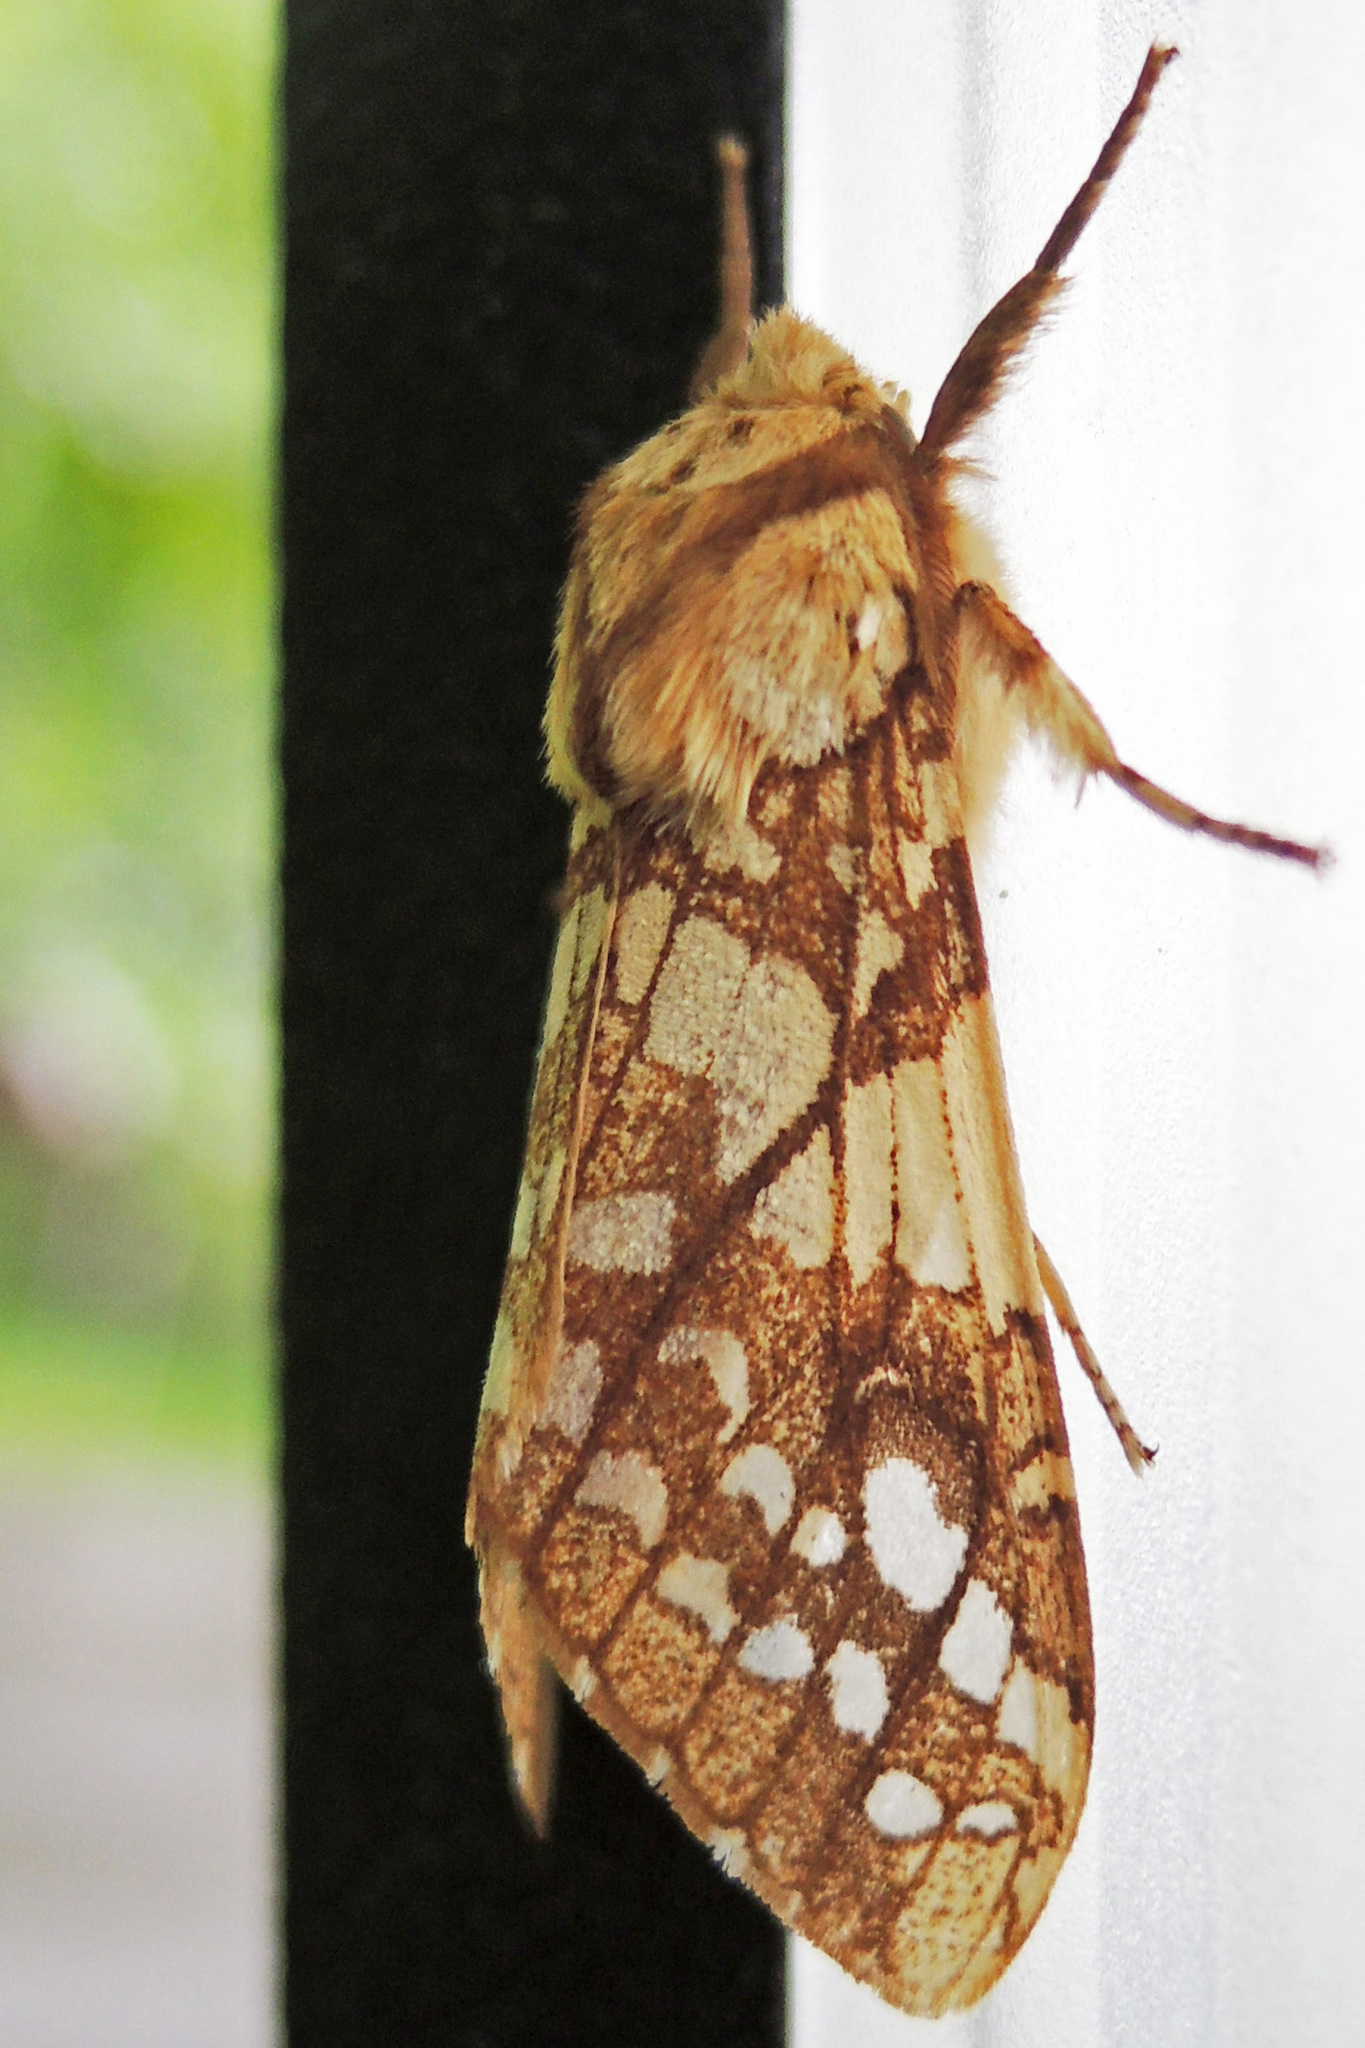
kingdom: Animalia
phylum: Arthropoda
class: Insecta
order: Lepidoptera
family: Erebidae
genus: Lophocampa
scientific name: Lophocampa caryae
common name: Hickory tussock moth
